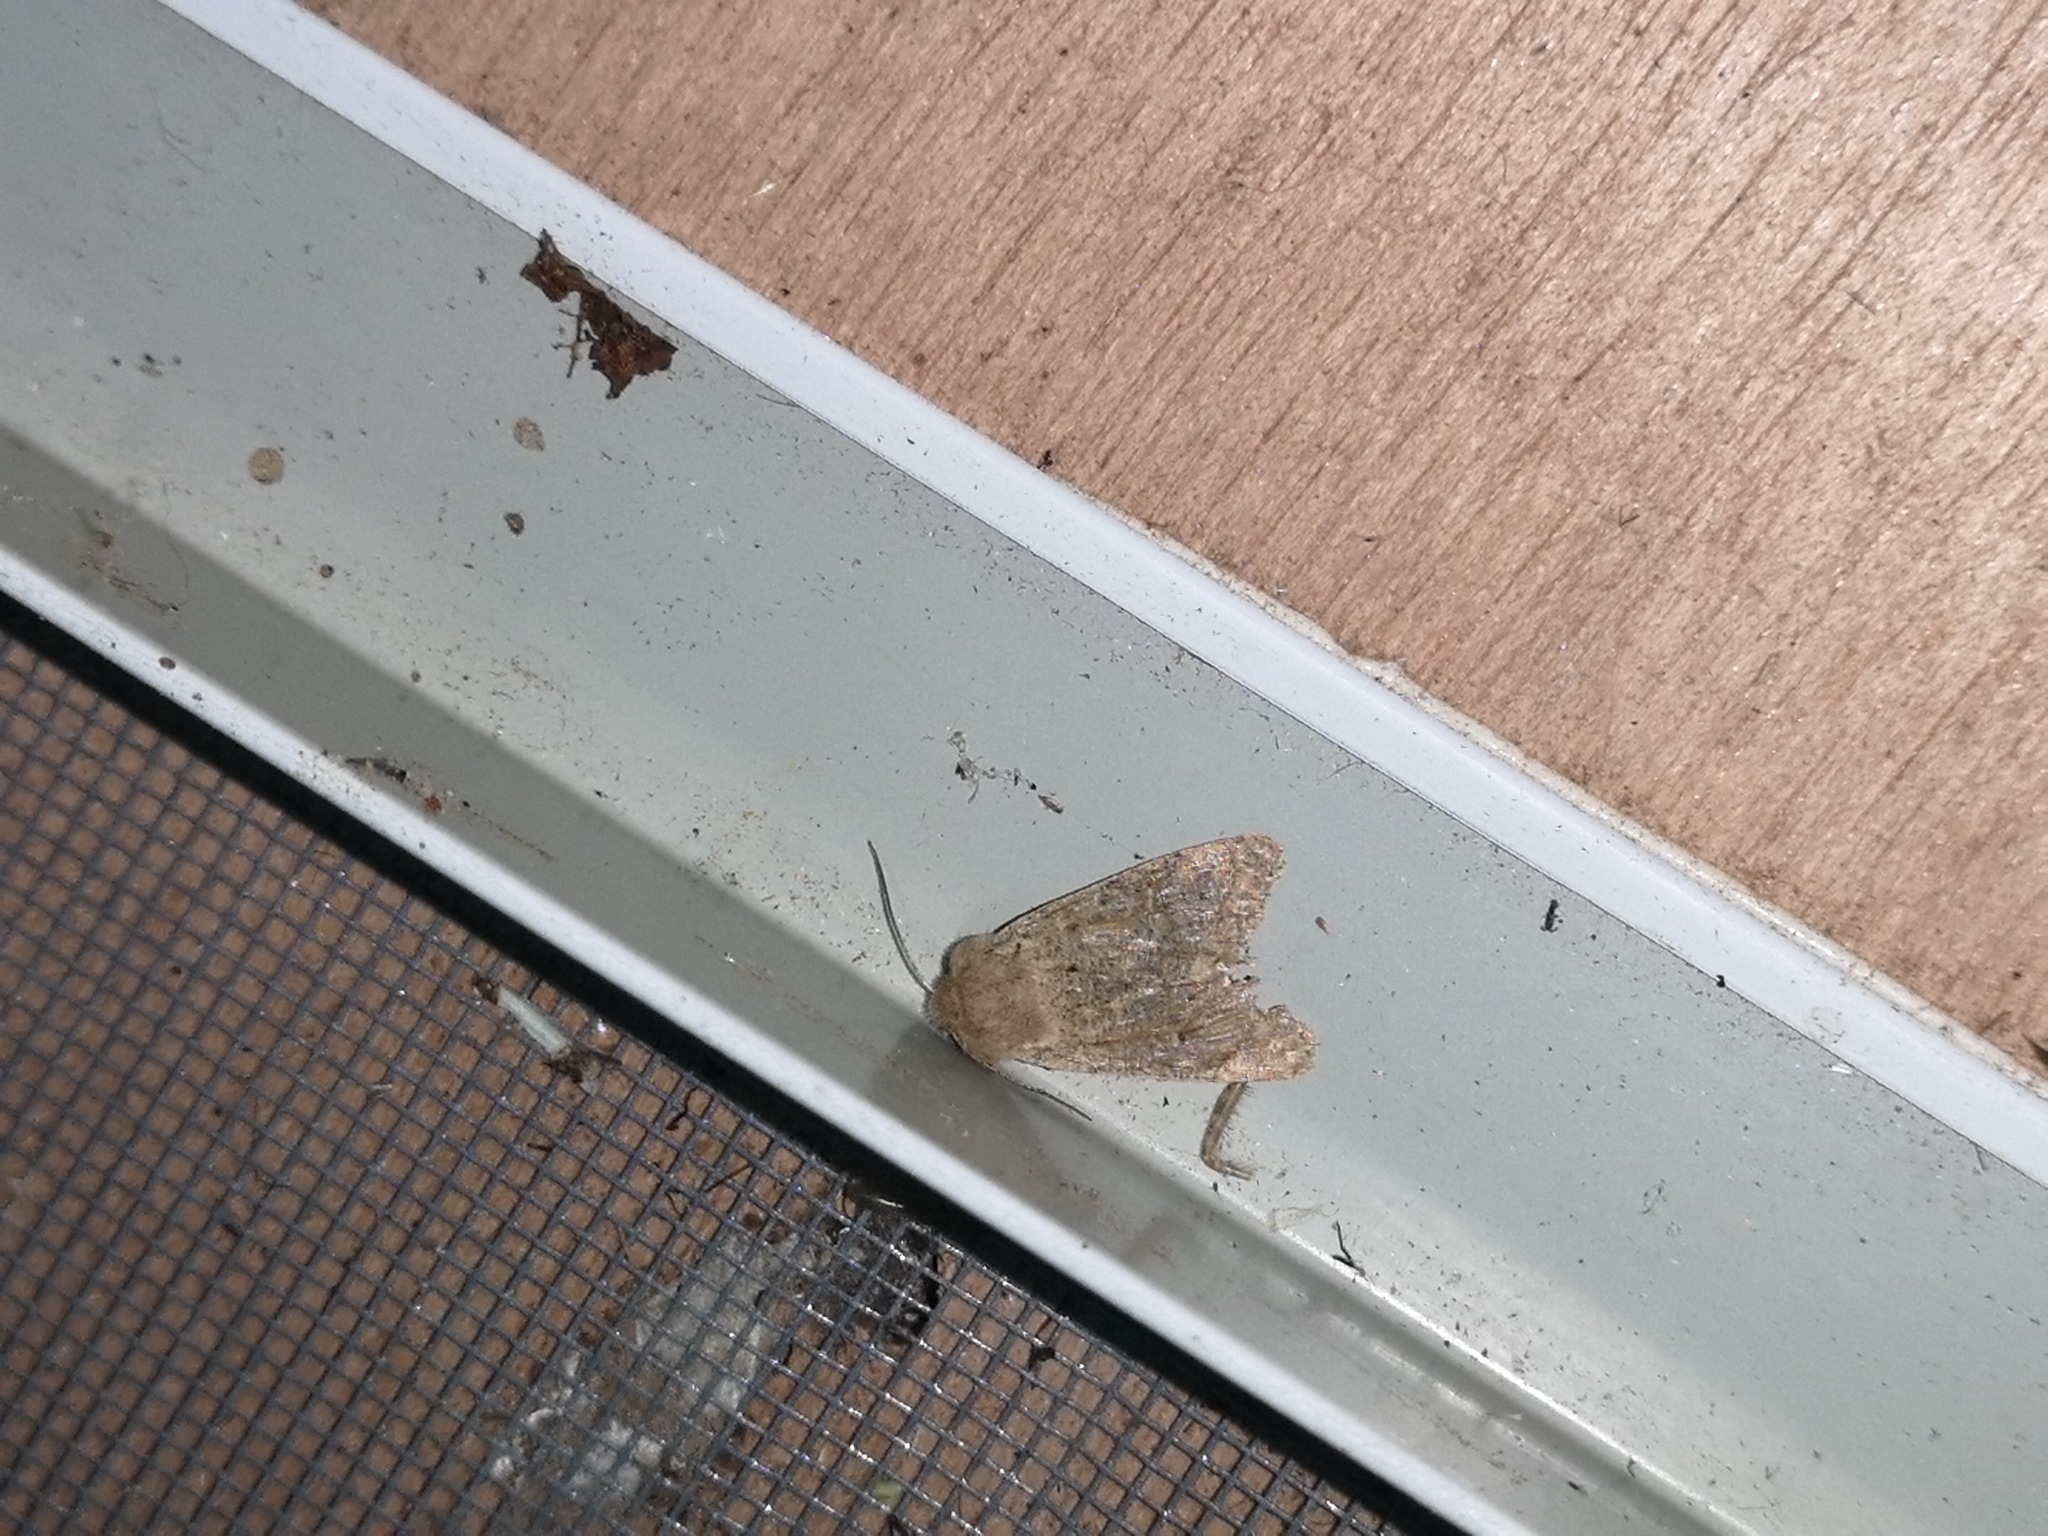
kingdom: Animalia
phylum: Arthropoda
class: Insecta
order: Lepidoptera
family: Noctuidae
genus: Orthosia
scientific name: Orthosia cruda
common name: Small quaker
